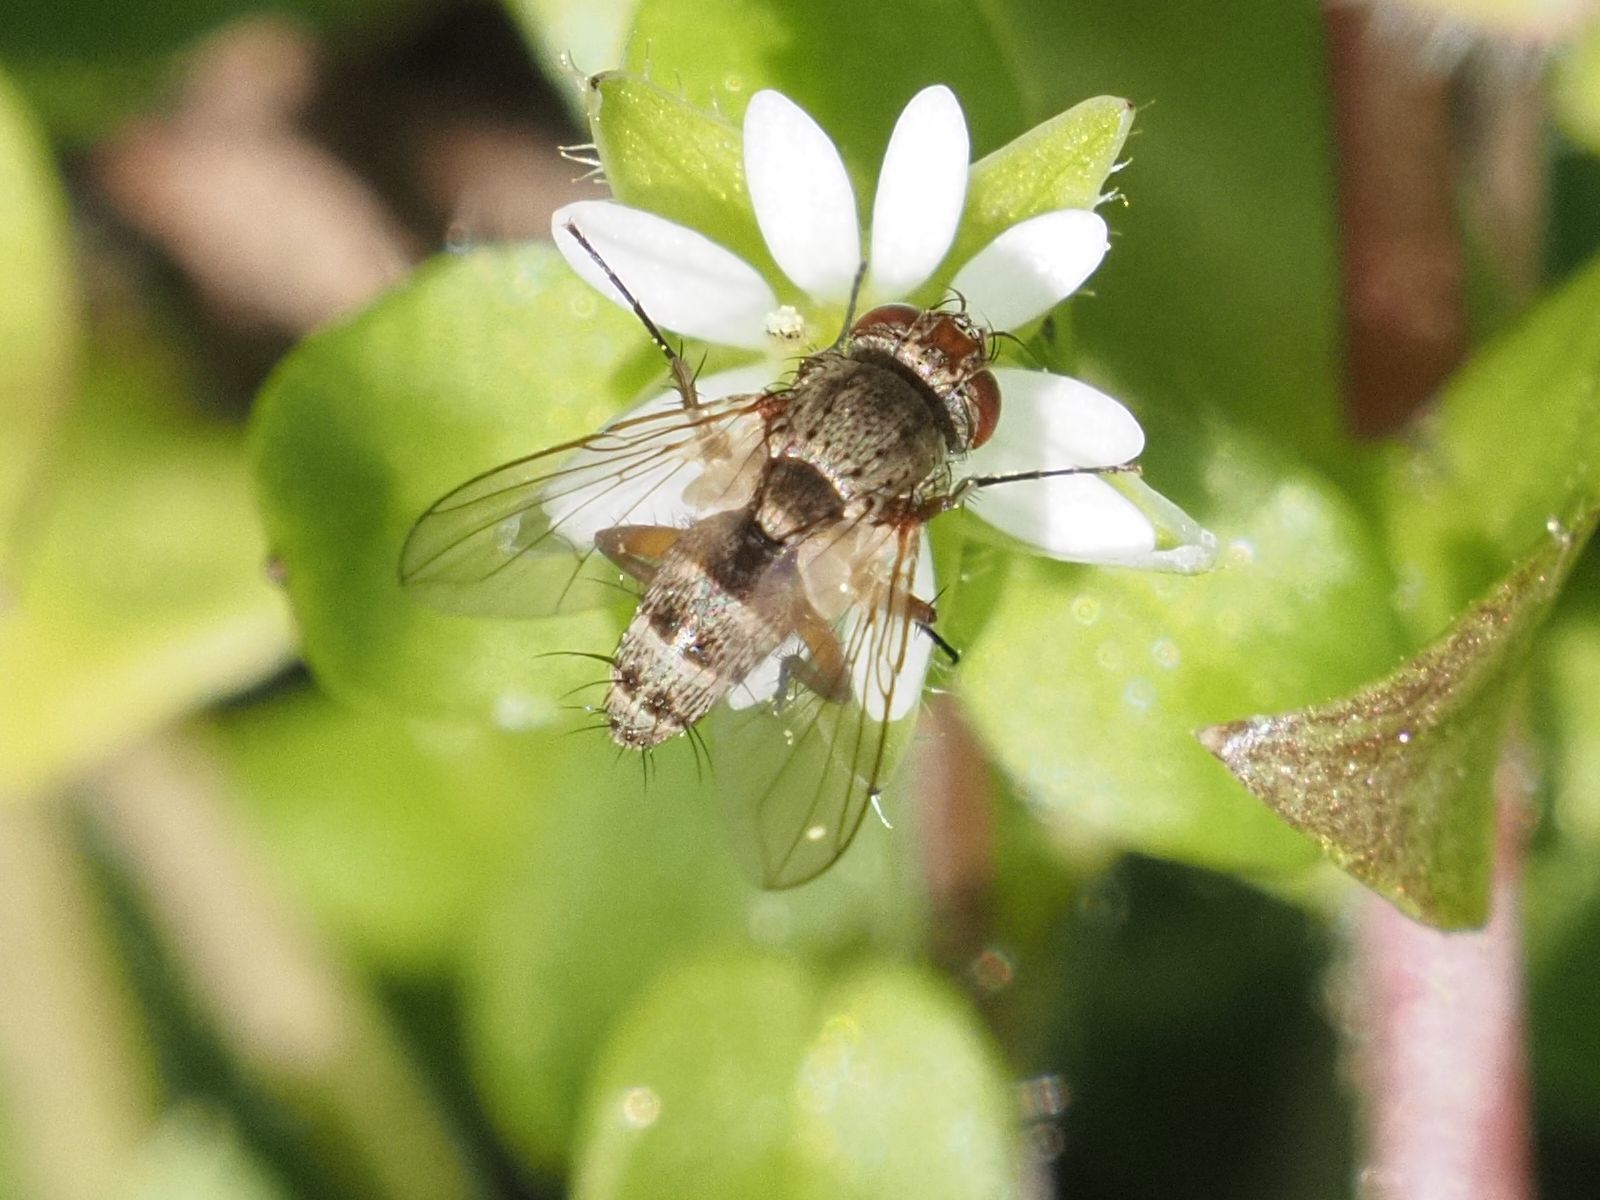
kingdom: Animalia
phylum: Arthropoda
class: Insecta
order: Diptera
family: Tachinidae
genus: Siphona
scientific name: Siphona maculata
